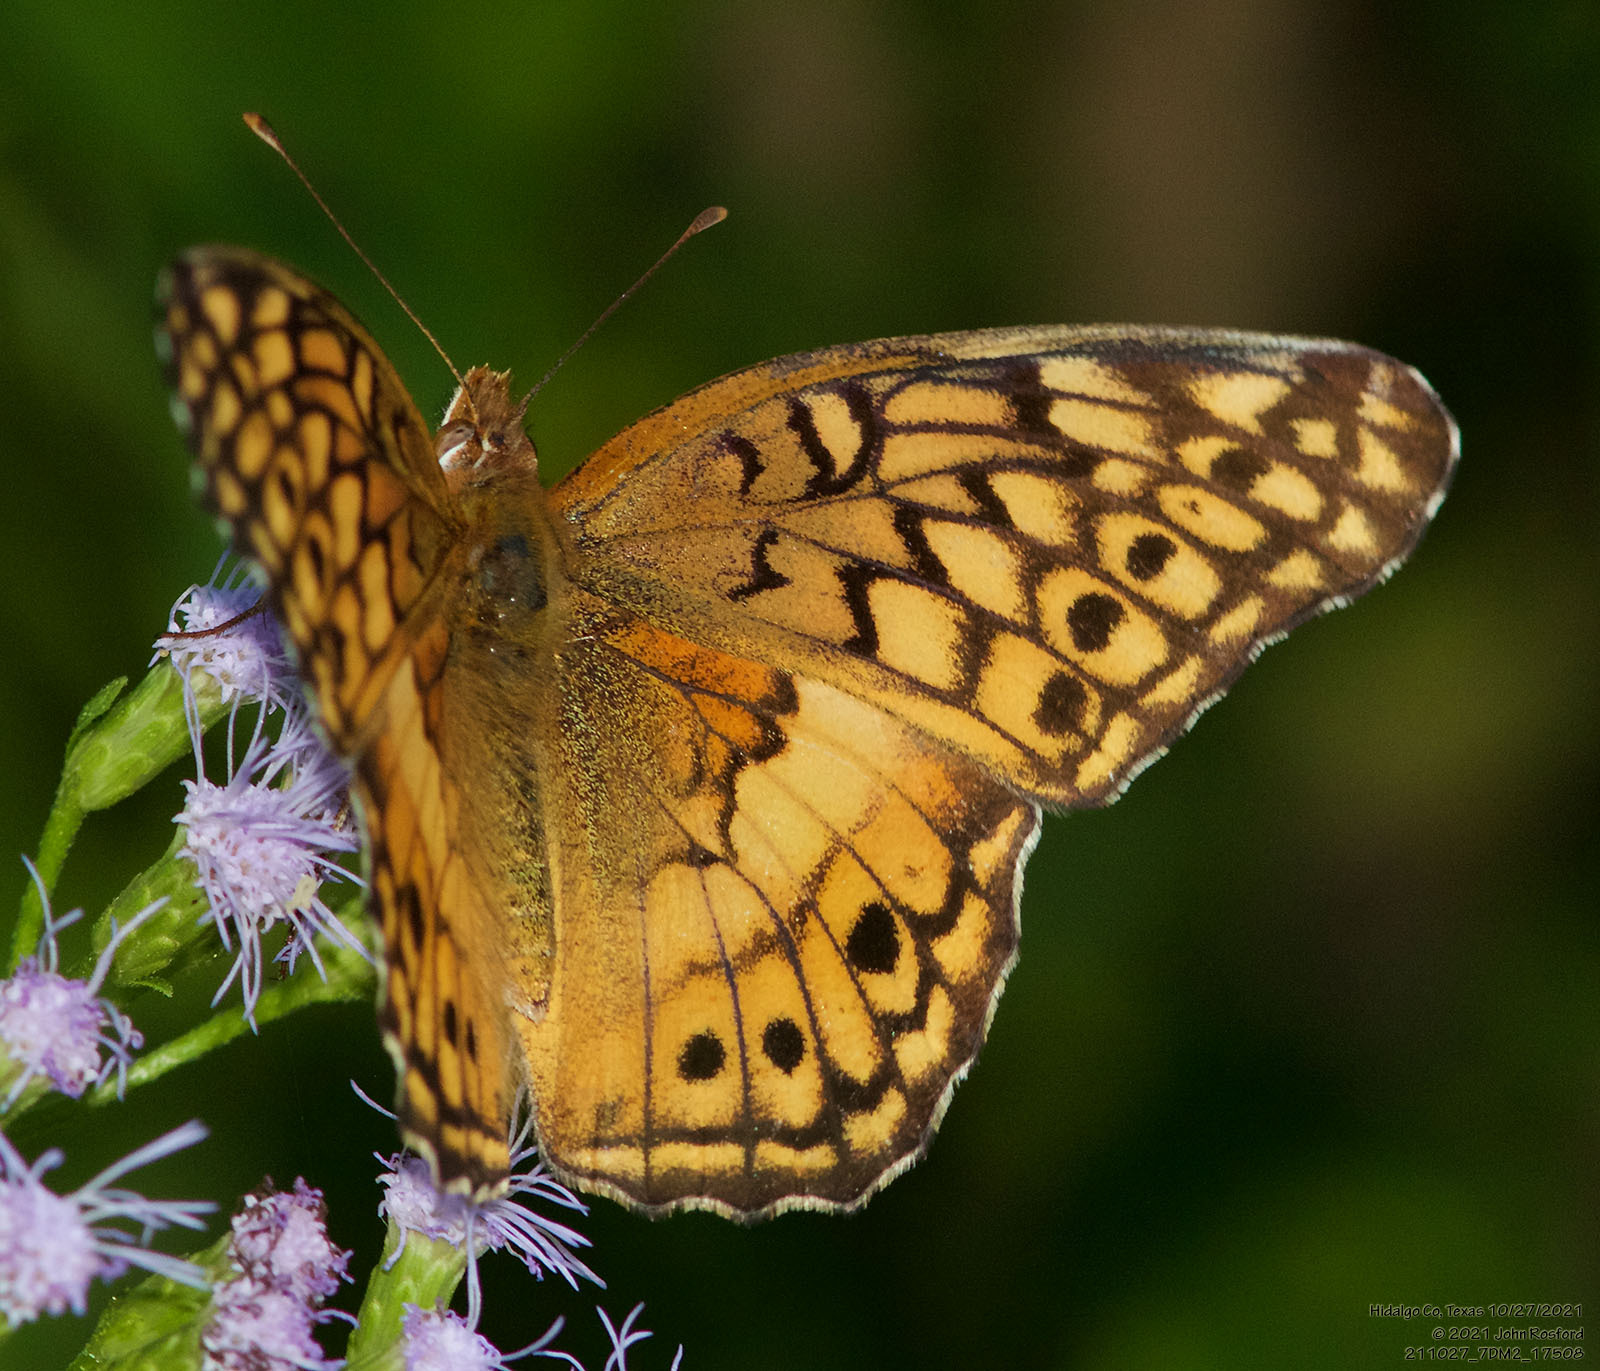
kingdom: Animalia
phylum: Arthropoda
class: Insecta
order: Lepidoptera
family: Nymphalidae
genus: Euptoieta
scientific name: Euptoieta claudia
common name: Variegated fritillary
